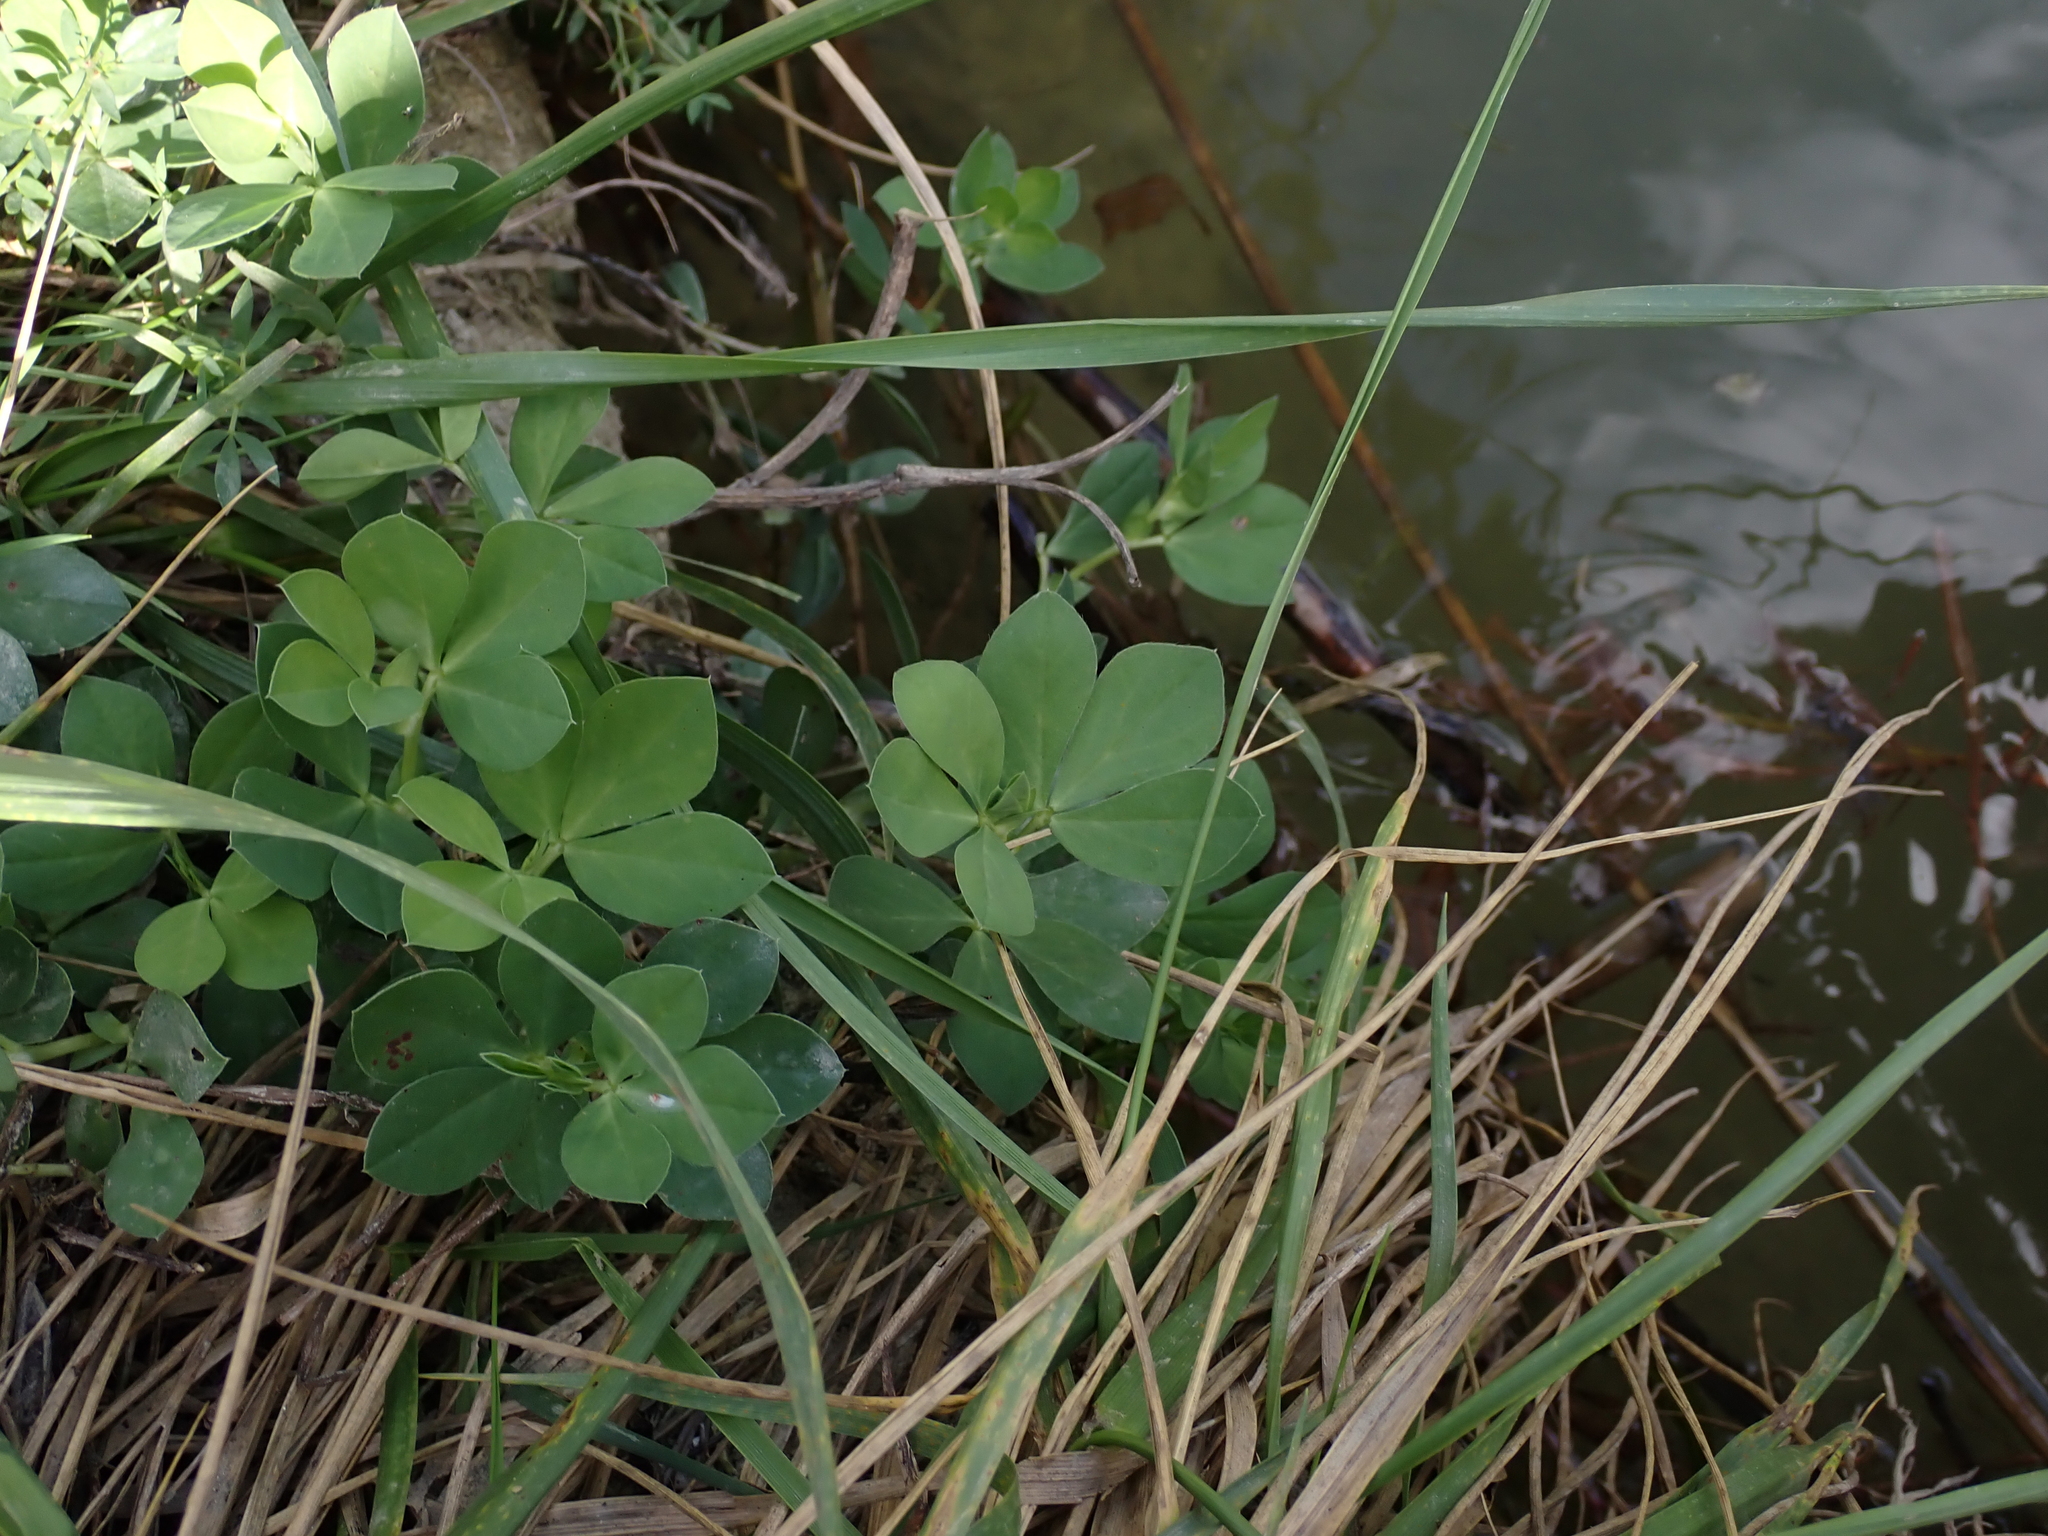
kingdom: Plantae
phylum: Tracheophyta
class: Magnoliopsida
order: Fabales
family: Fabaceae
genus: Lotus
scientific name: Lotus maritimus
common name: Dragon's-teeth
